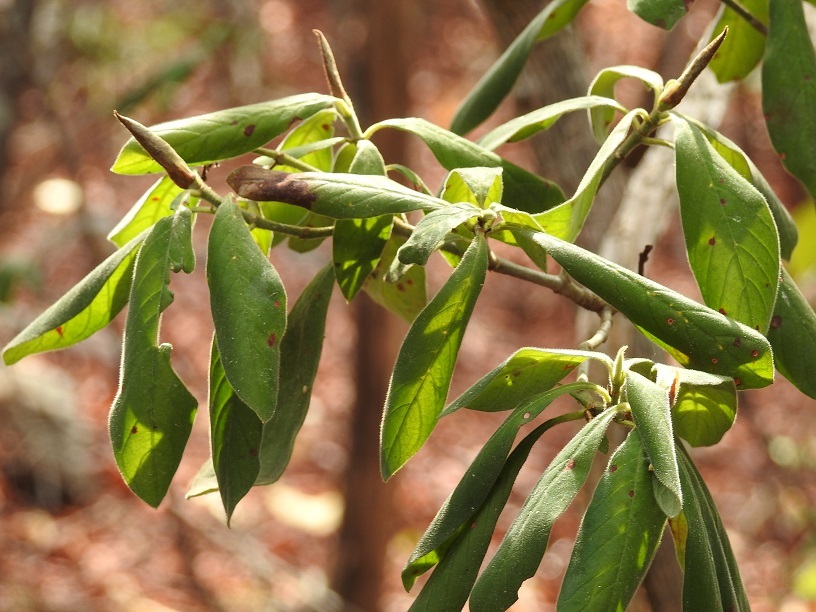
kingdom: Plantae
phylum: Tracheophyta
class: Magnoliopsida
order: Gentianales
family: Rubiaceae
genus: Psychotria
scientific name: Psychotria erythrocarpa
